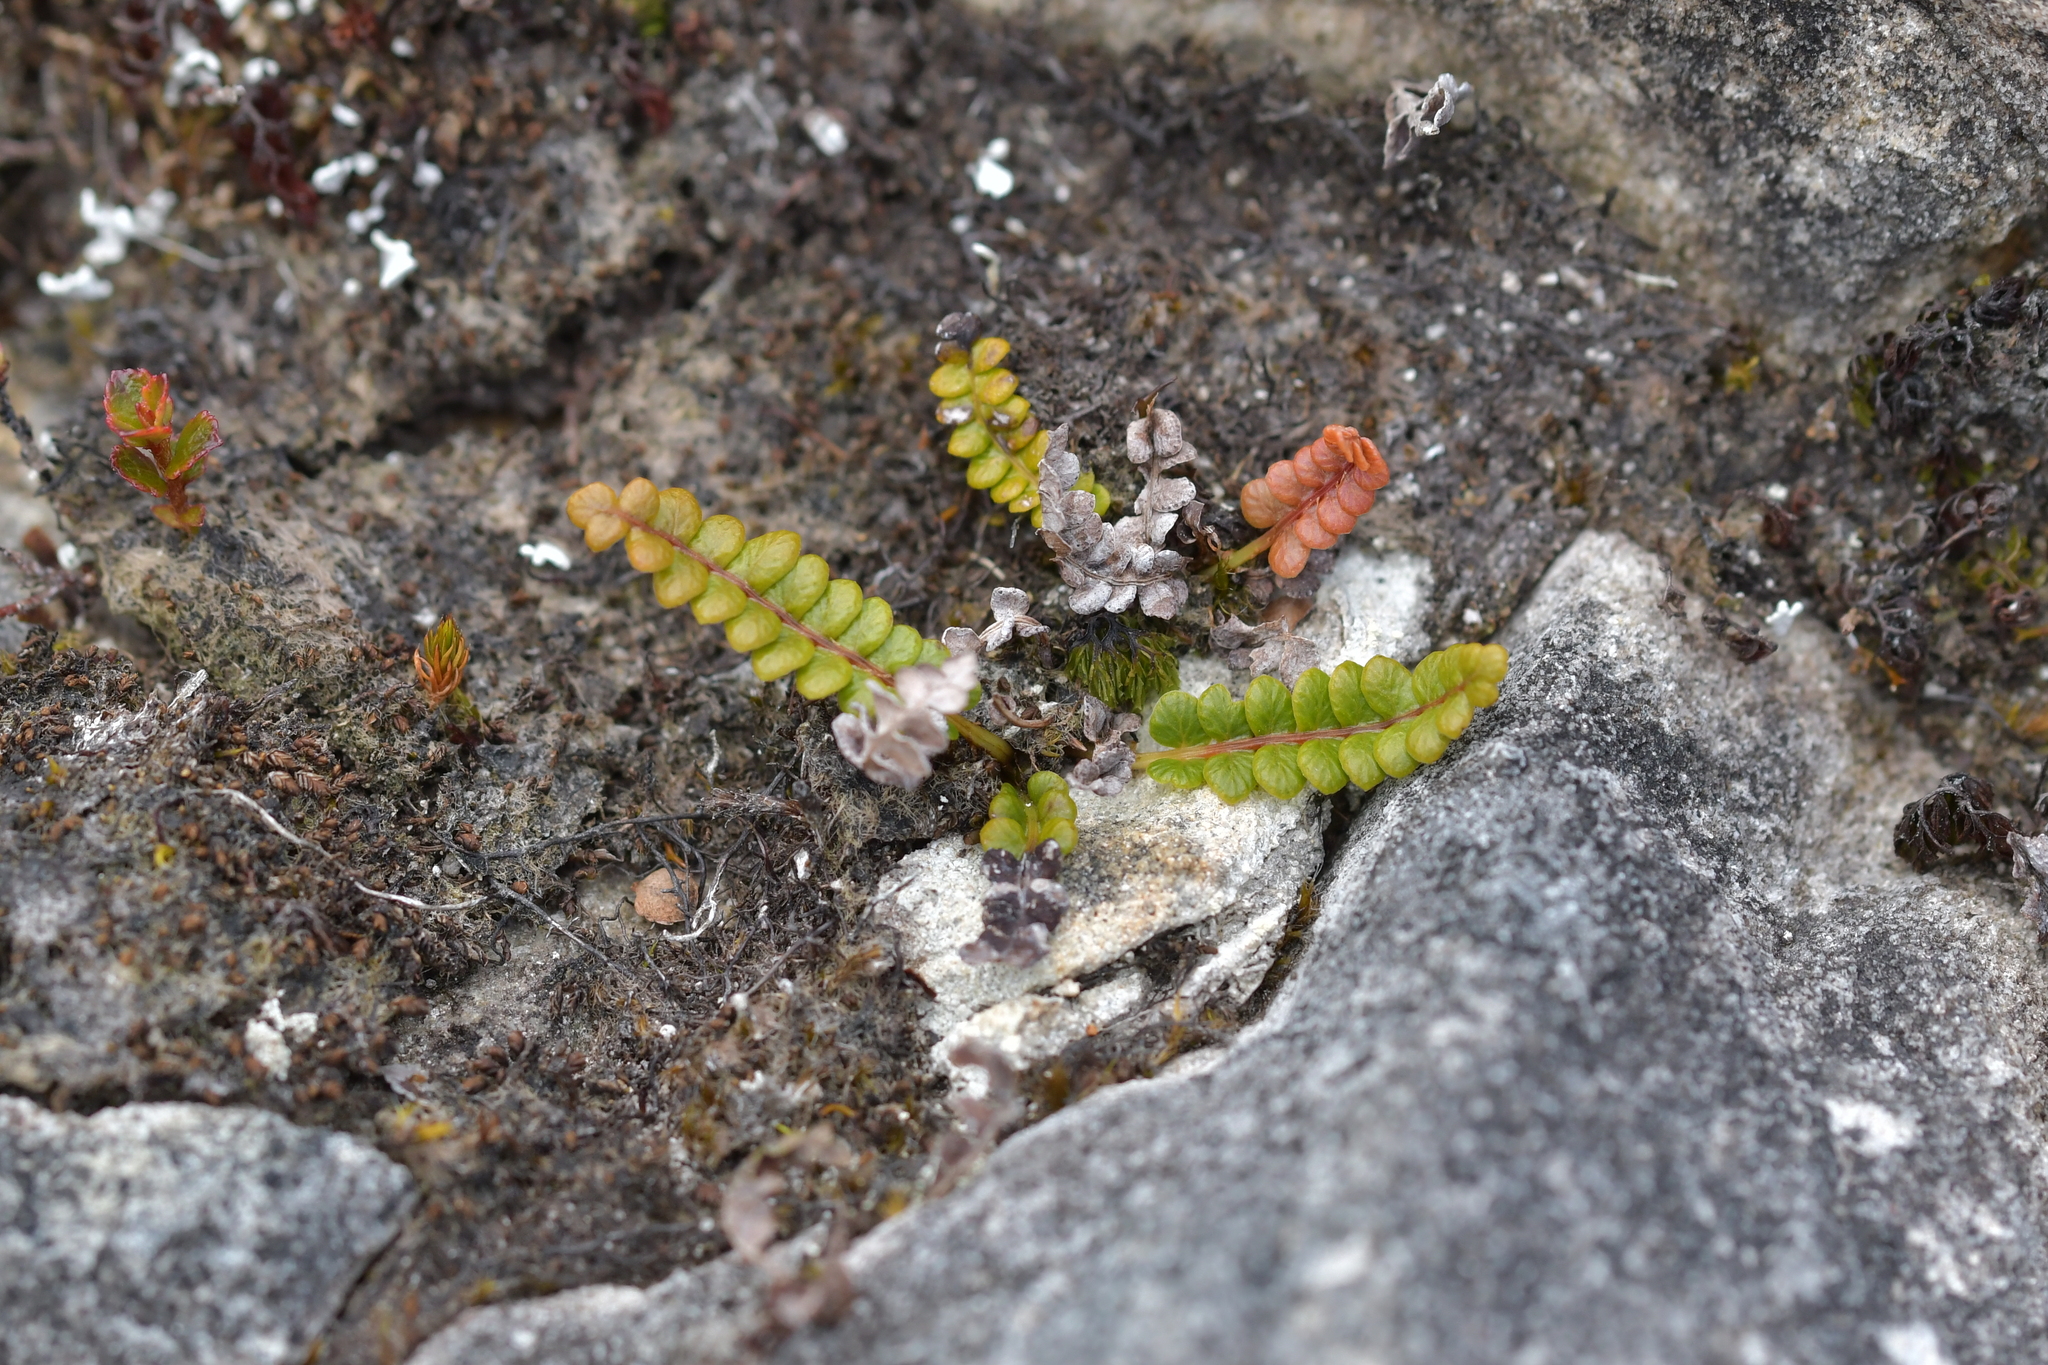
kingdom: Plantae
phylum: Tracheophyta
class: Polypodiopsida
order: Polypodiales
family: Blechnaceae
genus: Austroblechnum
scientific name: Austroblechnum penna-marina
